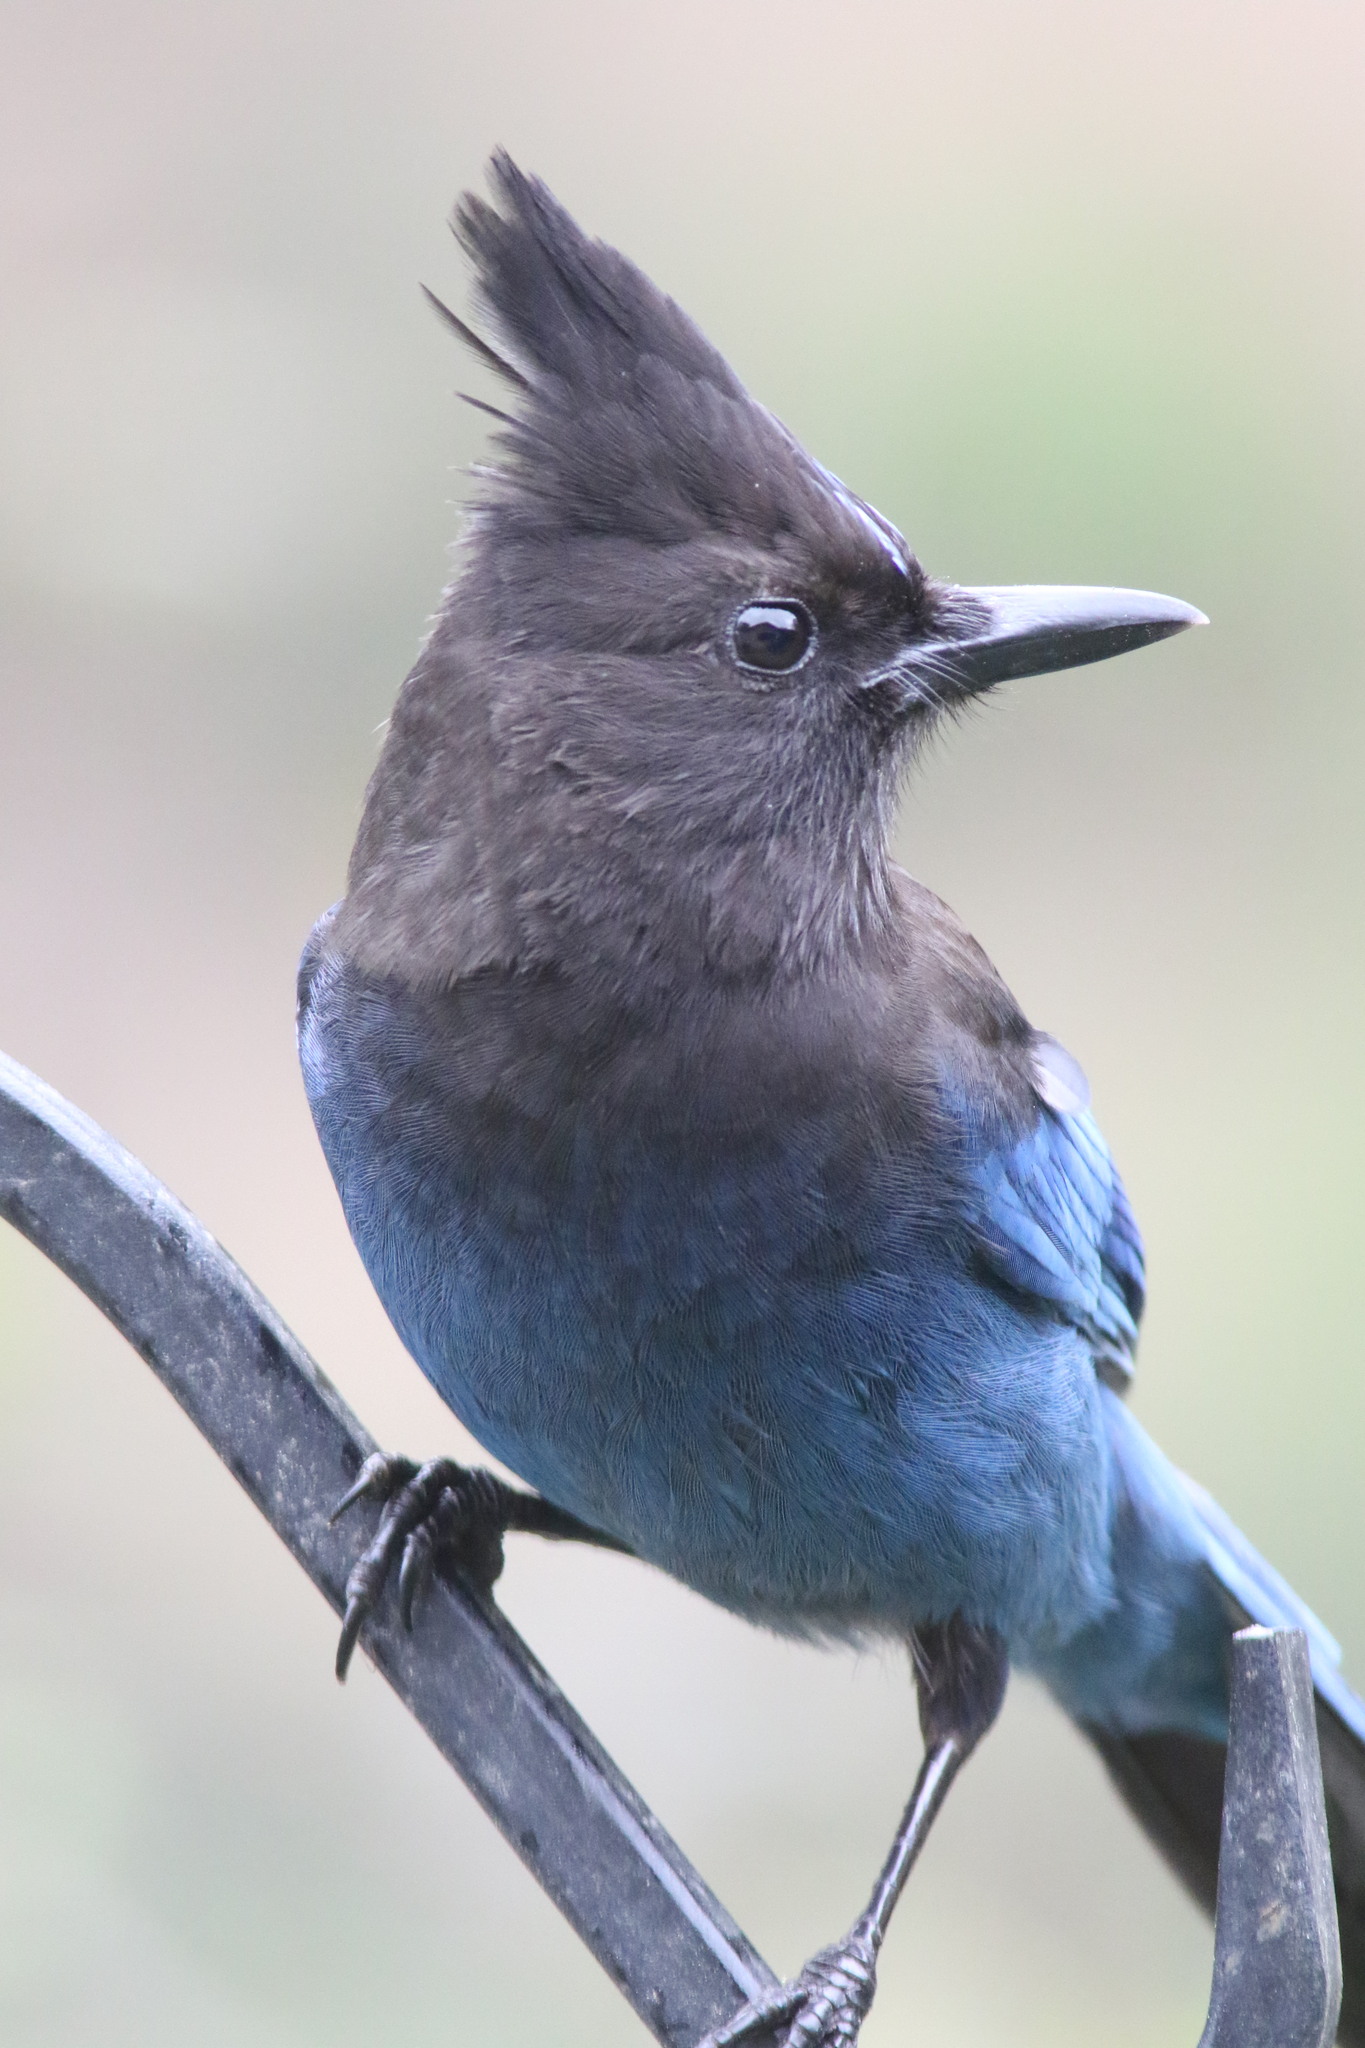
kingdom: Animalia
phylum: Chordata
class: Aves
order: Passeriformes
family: Corvidae
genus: Cyanocitta
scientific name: Cyanocitta stelleri
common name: Steller's jay
